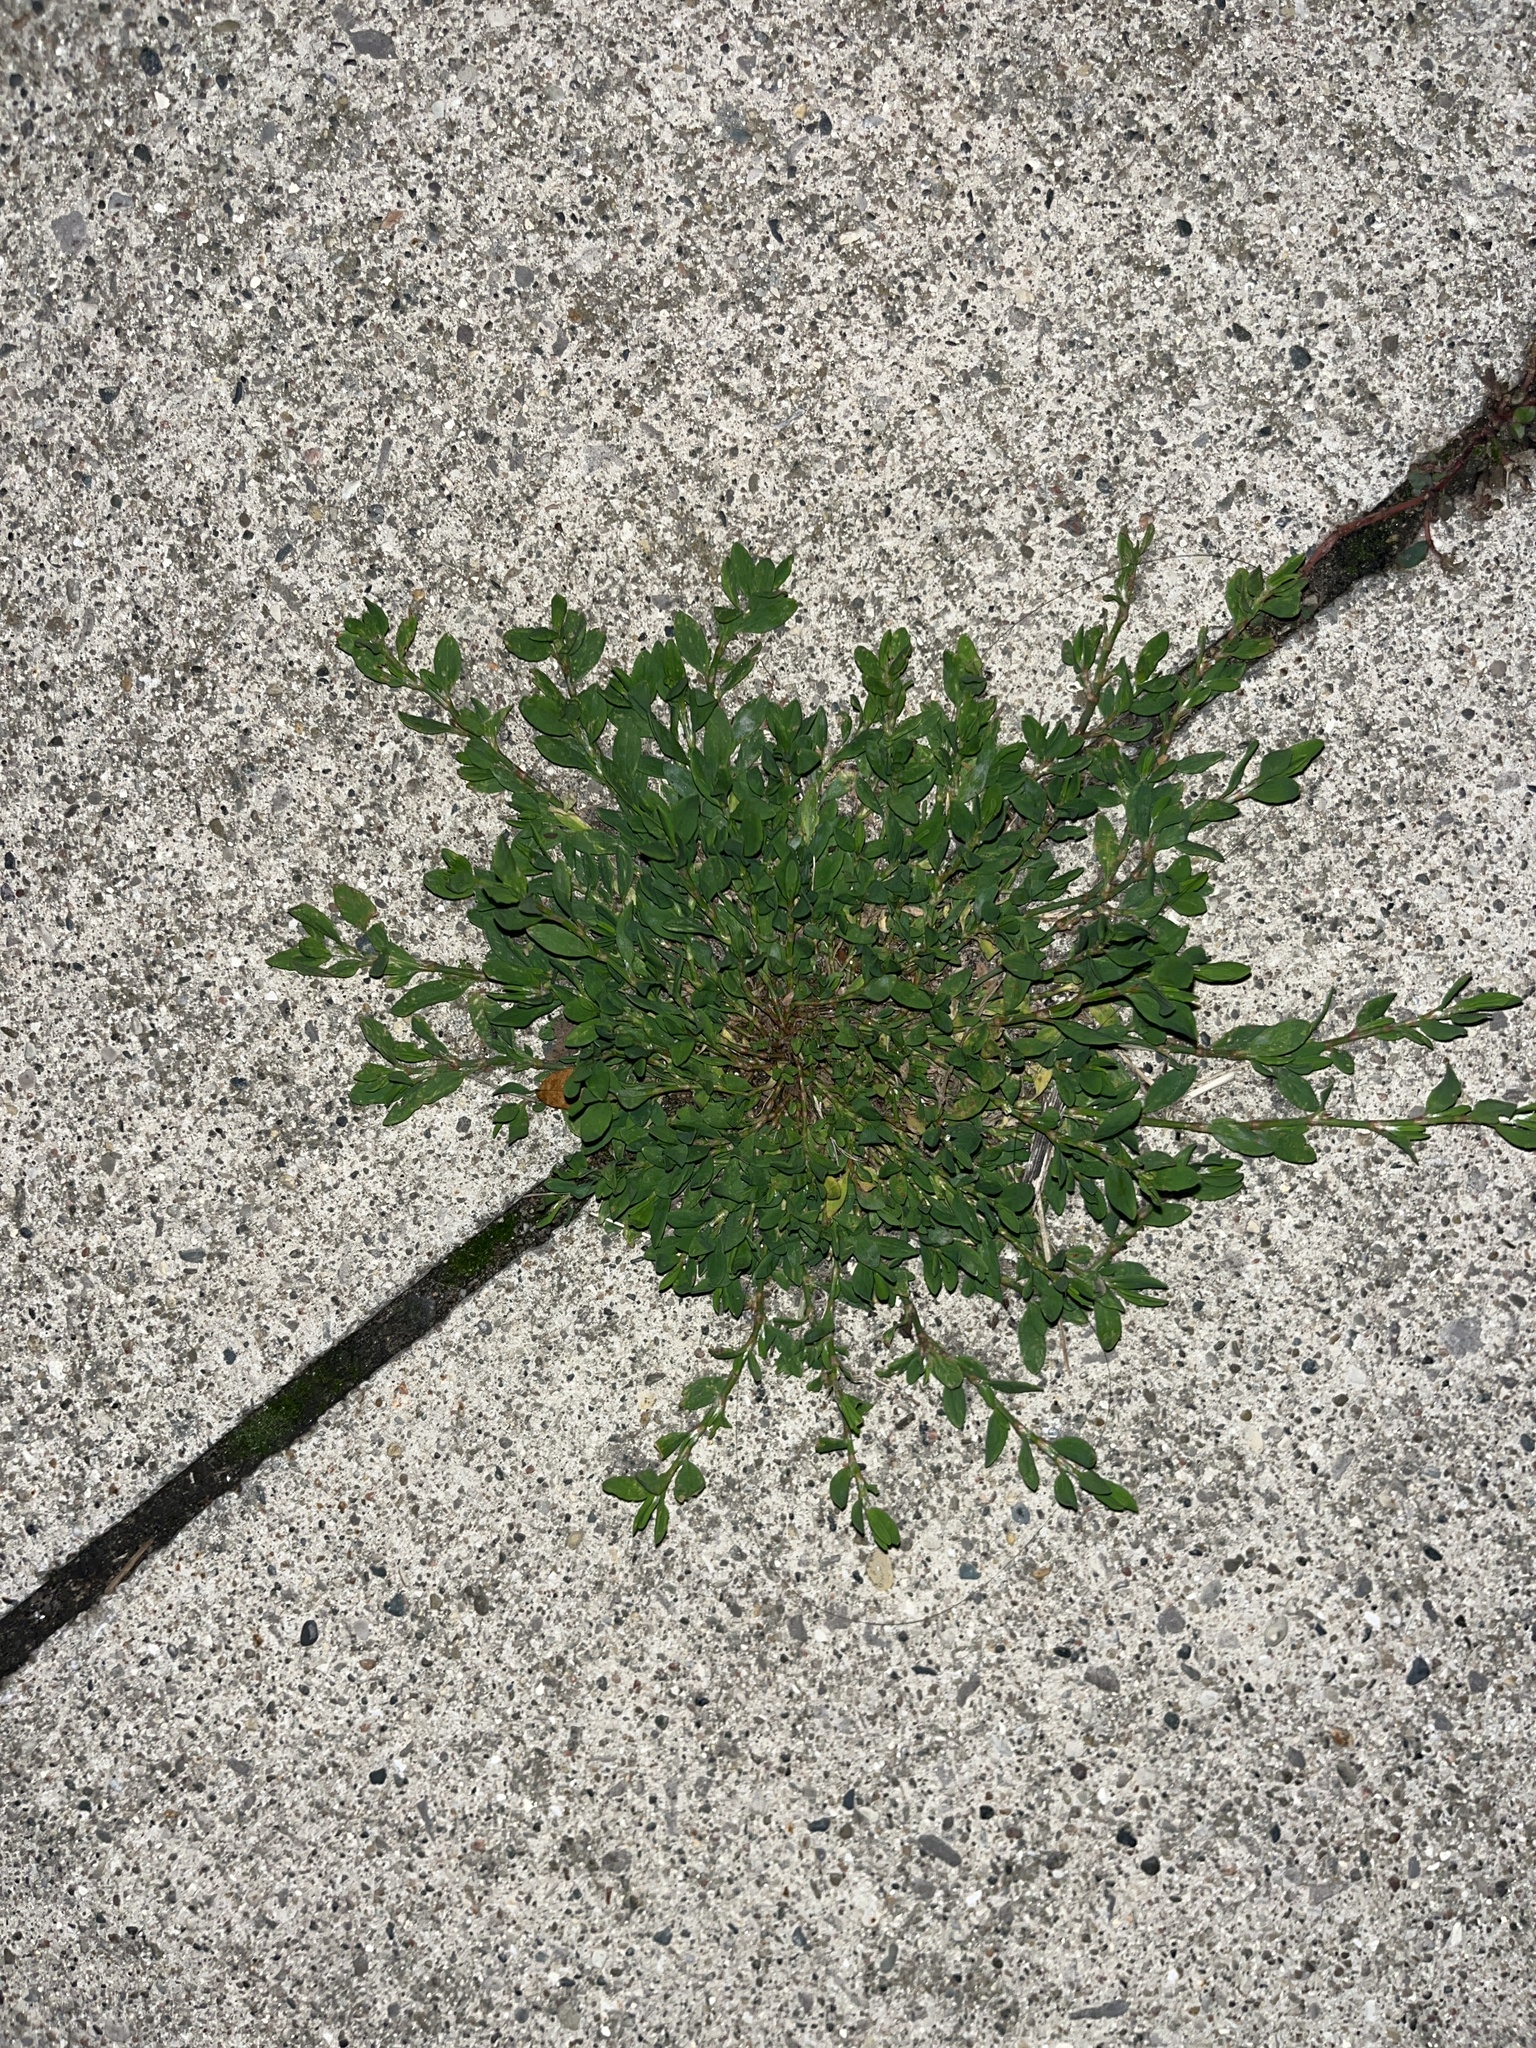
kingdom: Plantae
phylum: Tracheophyta
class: Magnoliopsida
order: Caryophyllales
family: Polygonaceae
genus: Polygonum
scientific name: Polygonum aviculare
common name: Prostrate knotweed
